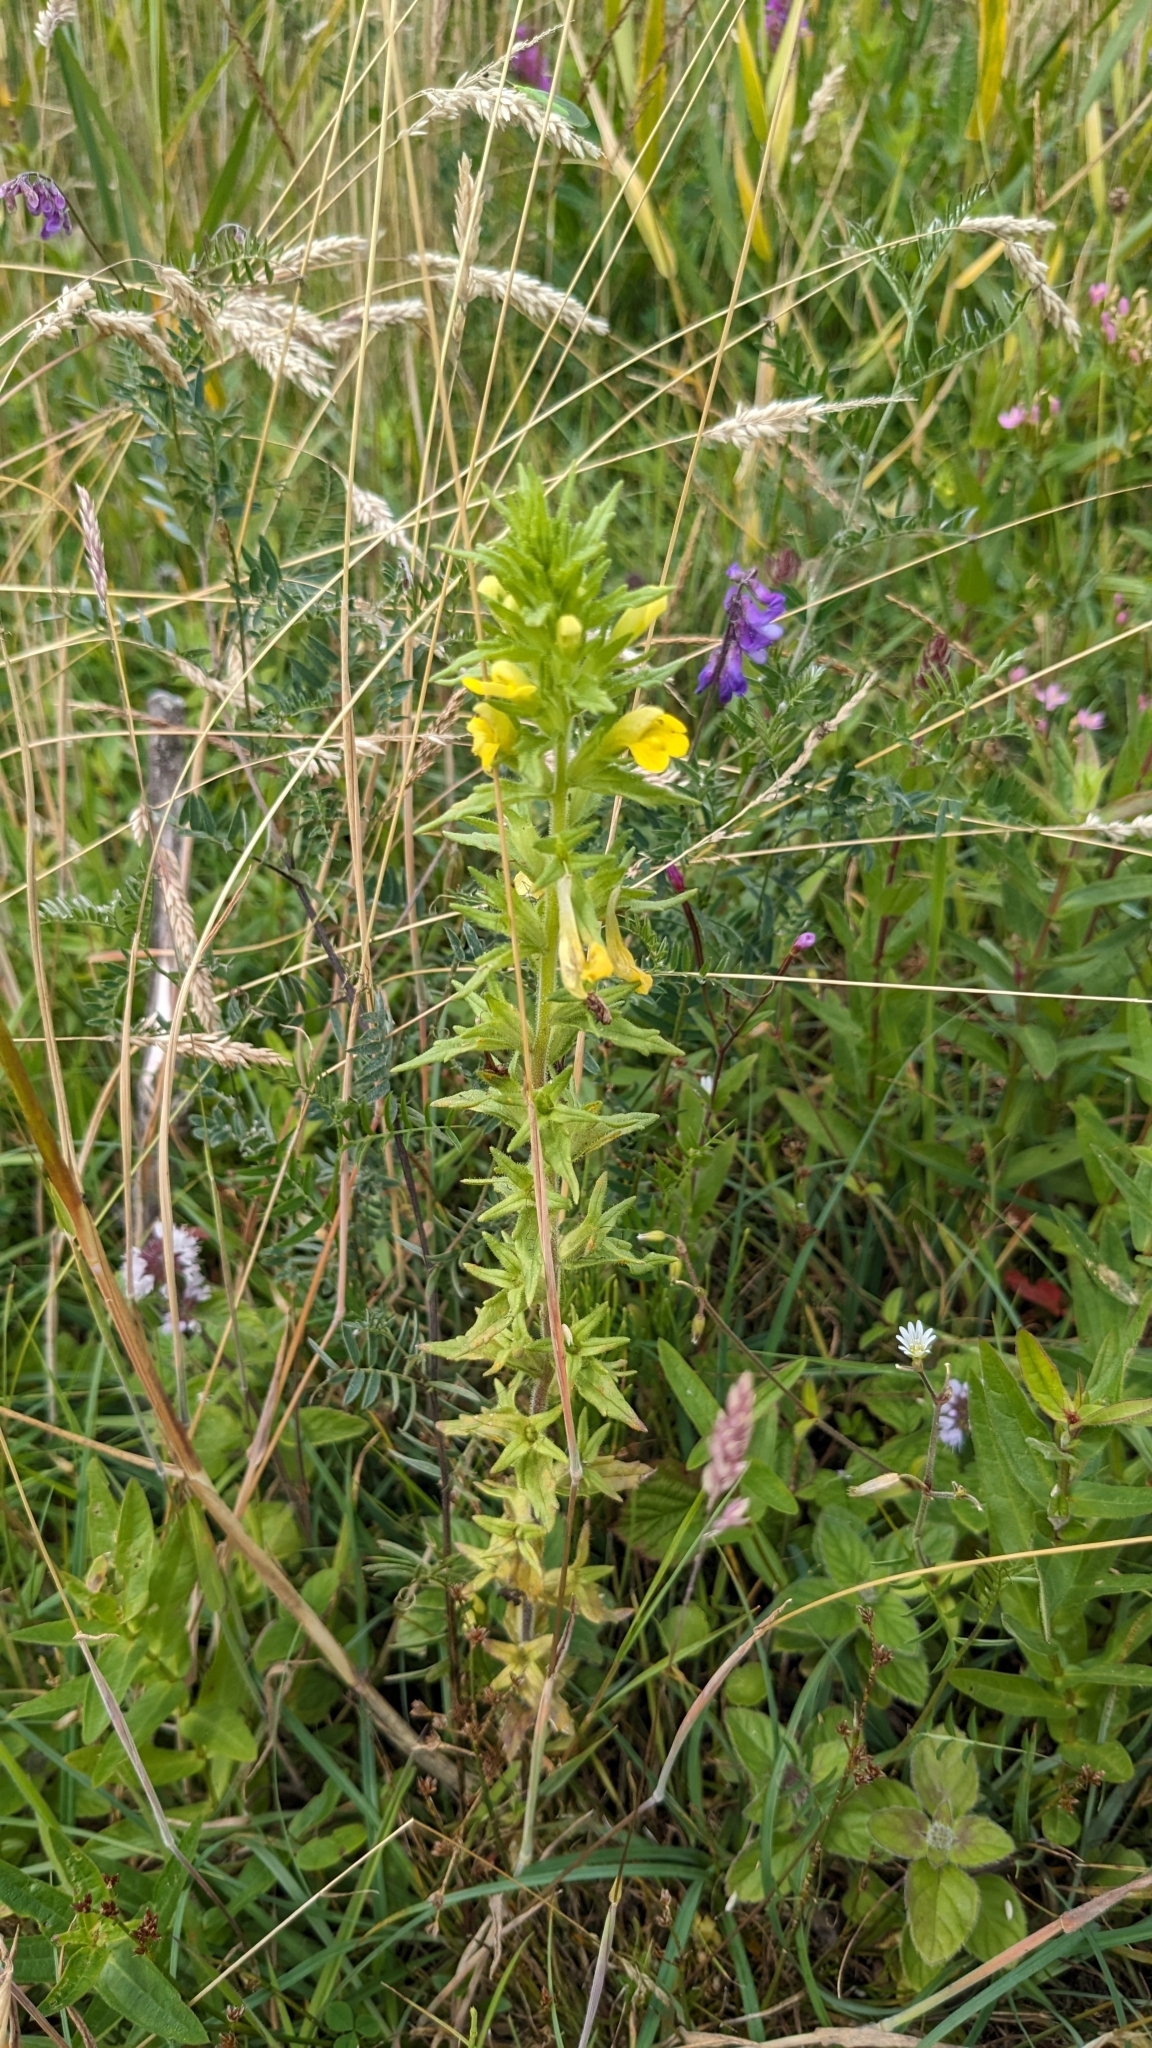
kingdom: Plantae
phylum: Tracheophyta
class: Magnoliopsida
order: Lamiales
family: Orobanchaceae
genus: Bellardia
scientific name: Bellardia viscosa
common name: Sticky parentucellia
